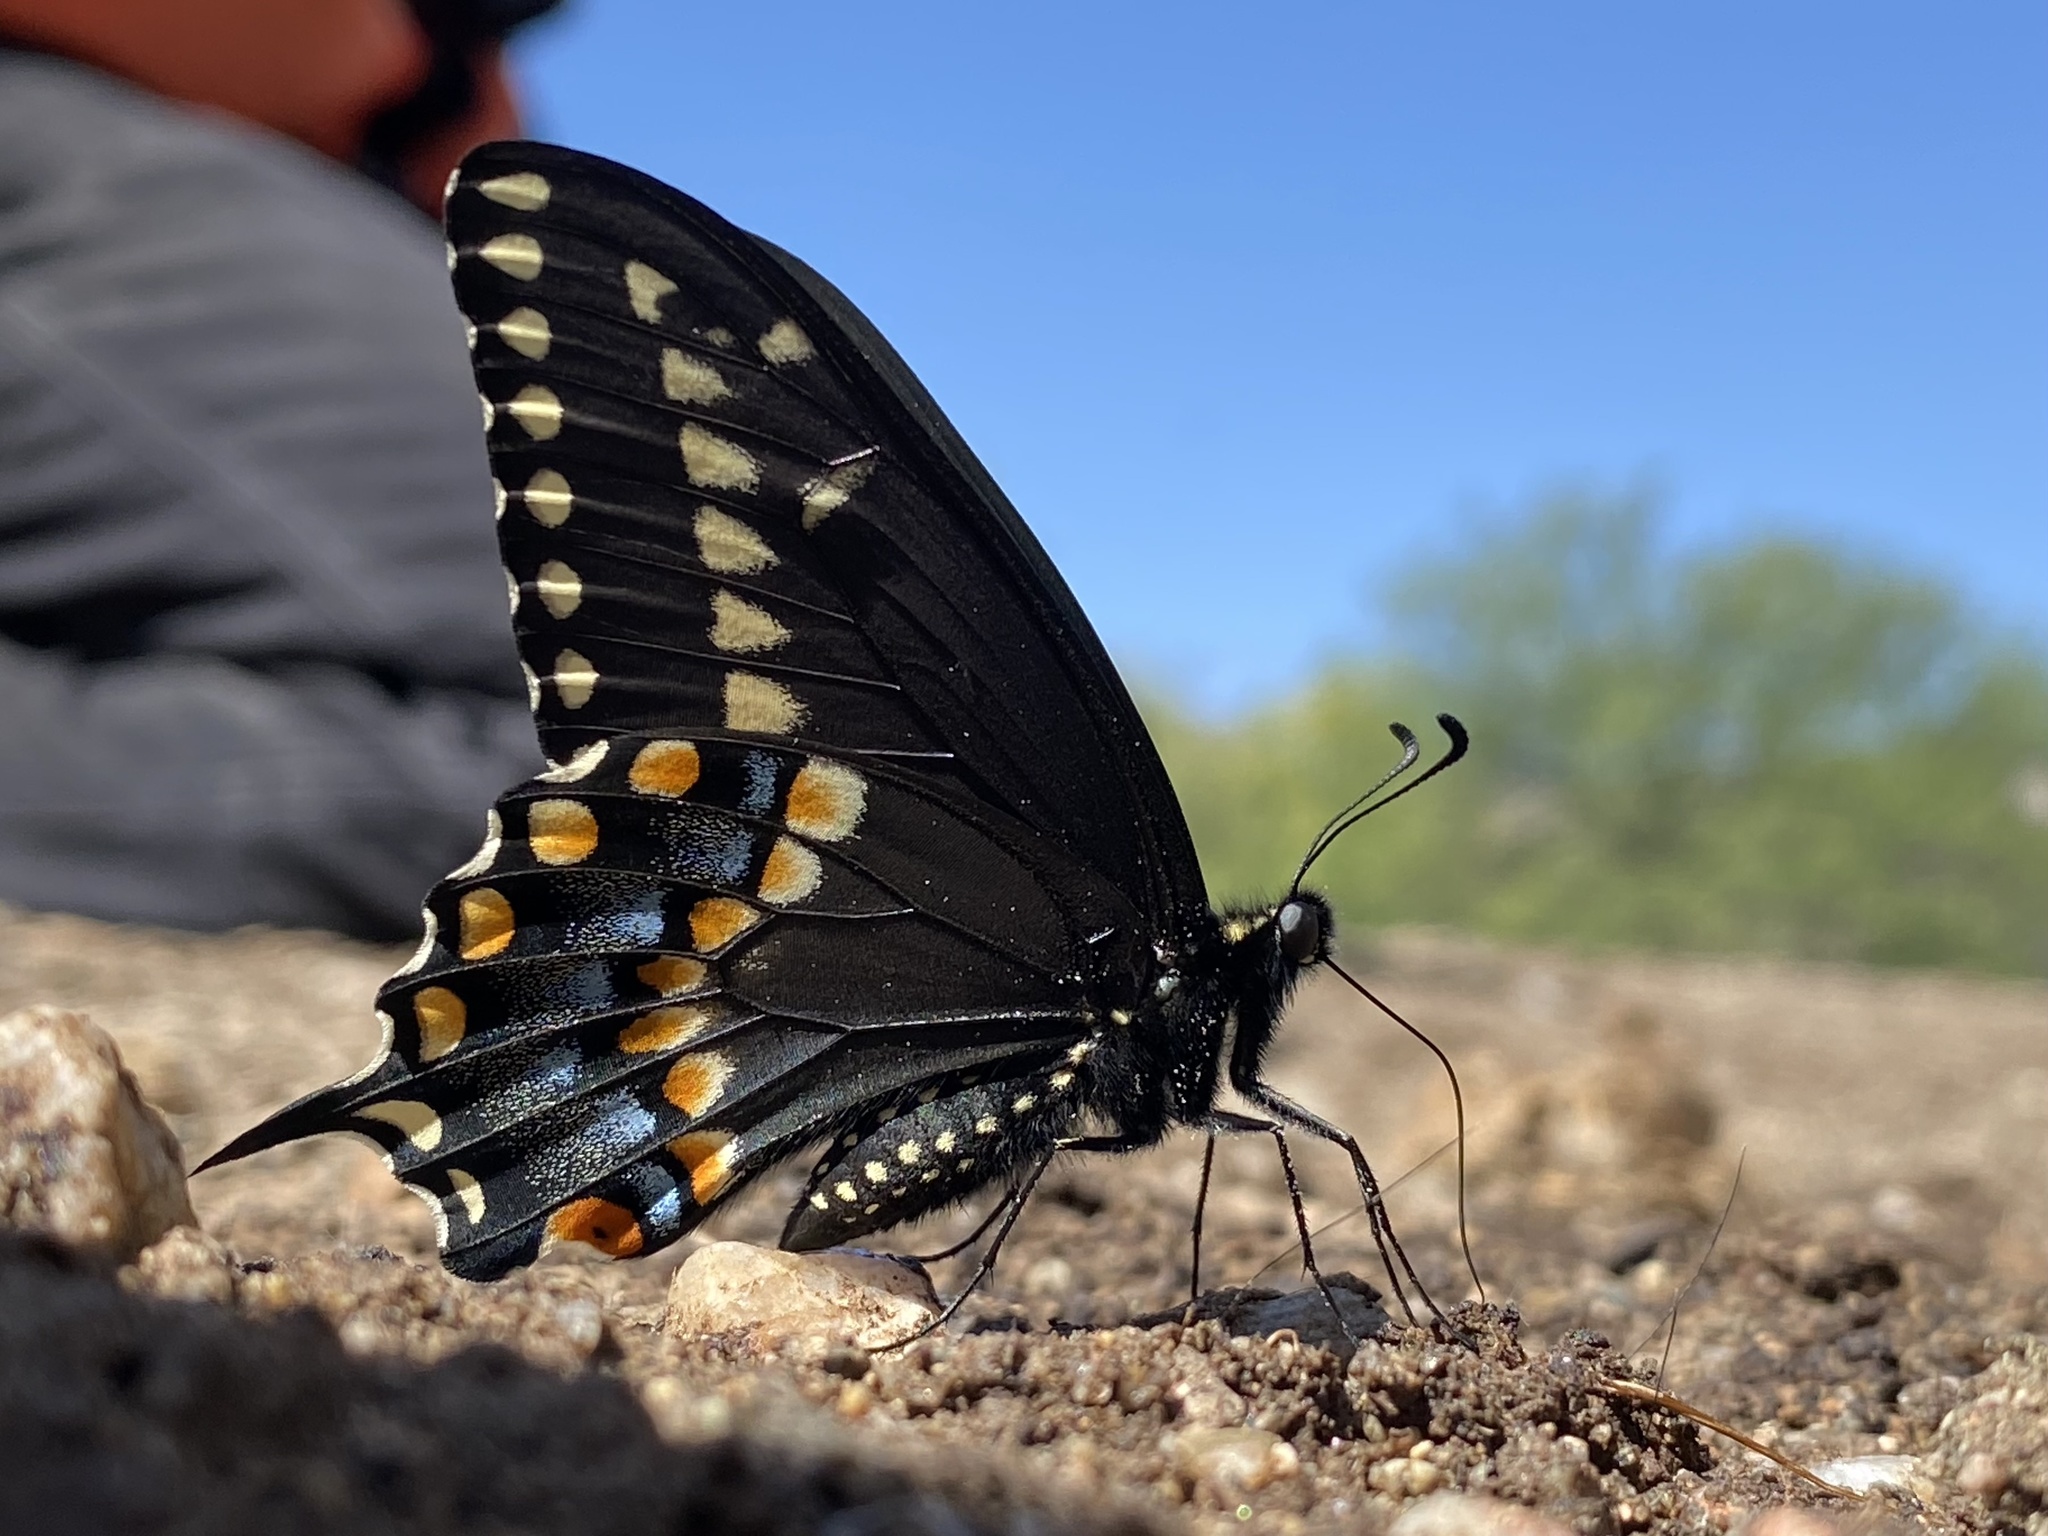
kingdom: Animalia
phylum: Arthropoda
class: Insecta
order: Lepidoptera
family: Papilionidae
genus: Papilio
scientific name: Papilio polyxenes
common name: Black swallowtail
